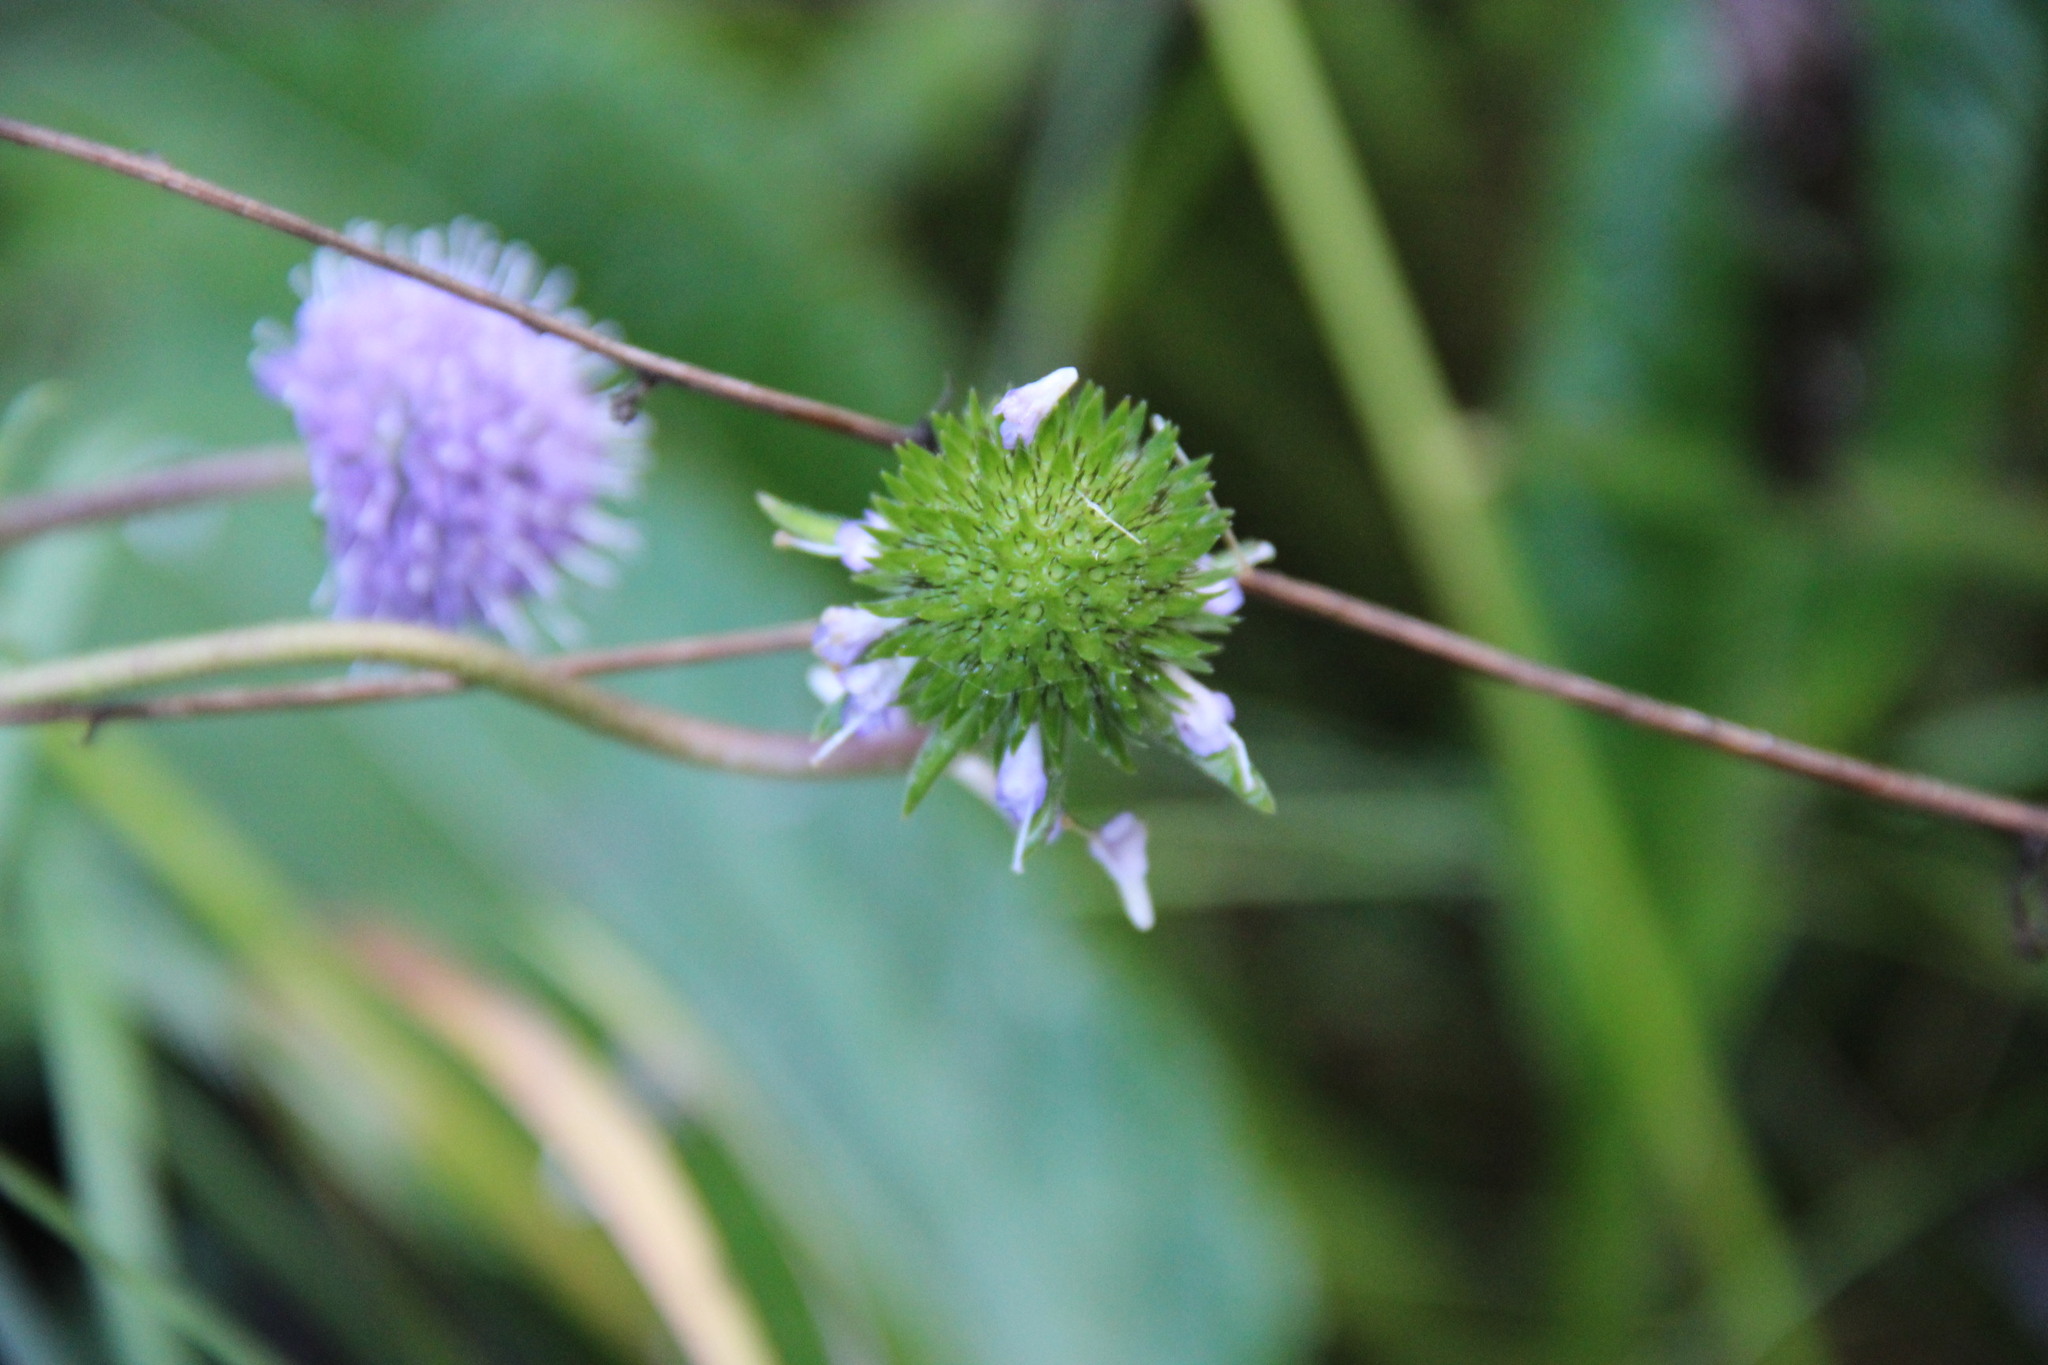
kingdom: Plantae
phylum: Tracheophyta
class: Magnoliopsida
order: Dipsacales
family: Caprifoliaceae
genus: Succisa
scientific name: Succisa pratensis
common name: Devil's-bit
